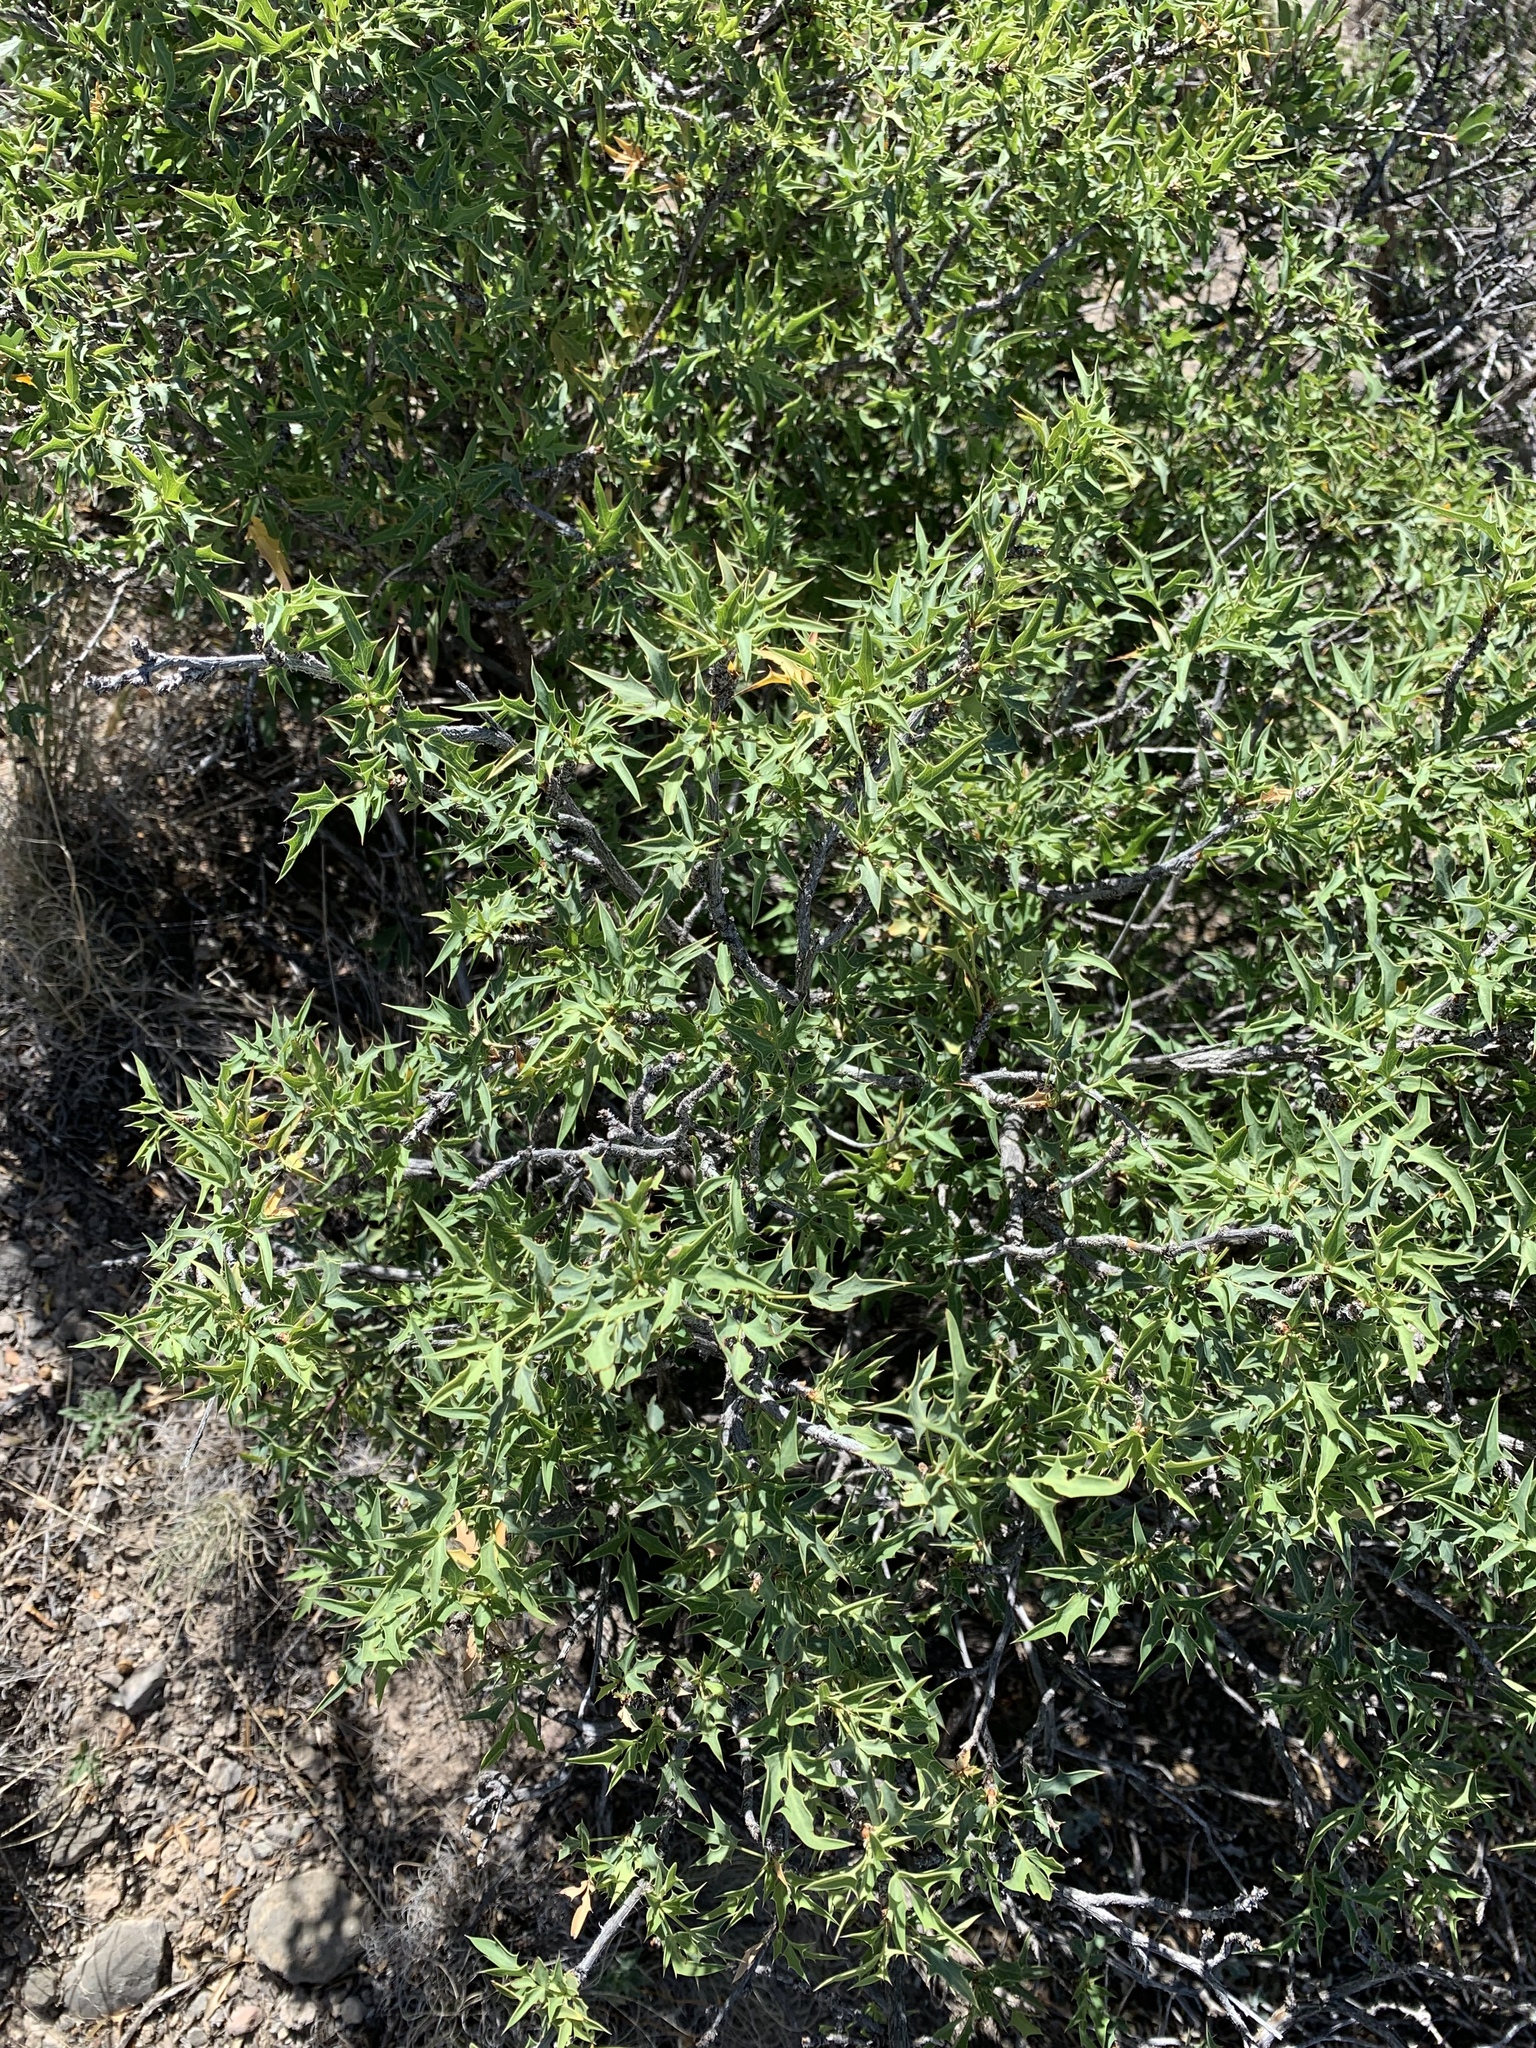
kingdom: Plantae
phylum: Tracheophyta
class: Magnoliopsida
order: Ranunculales
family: Berberidaceae
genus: Alloberberis
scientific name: Alloberberis haematocarpa
